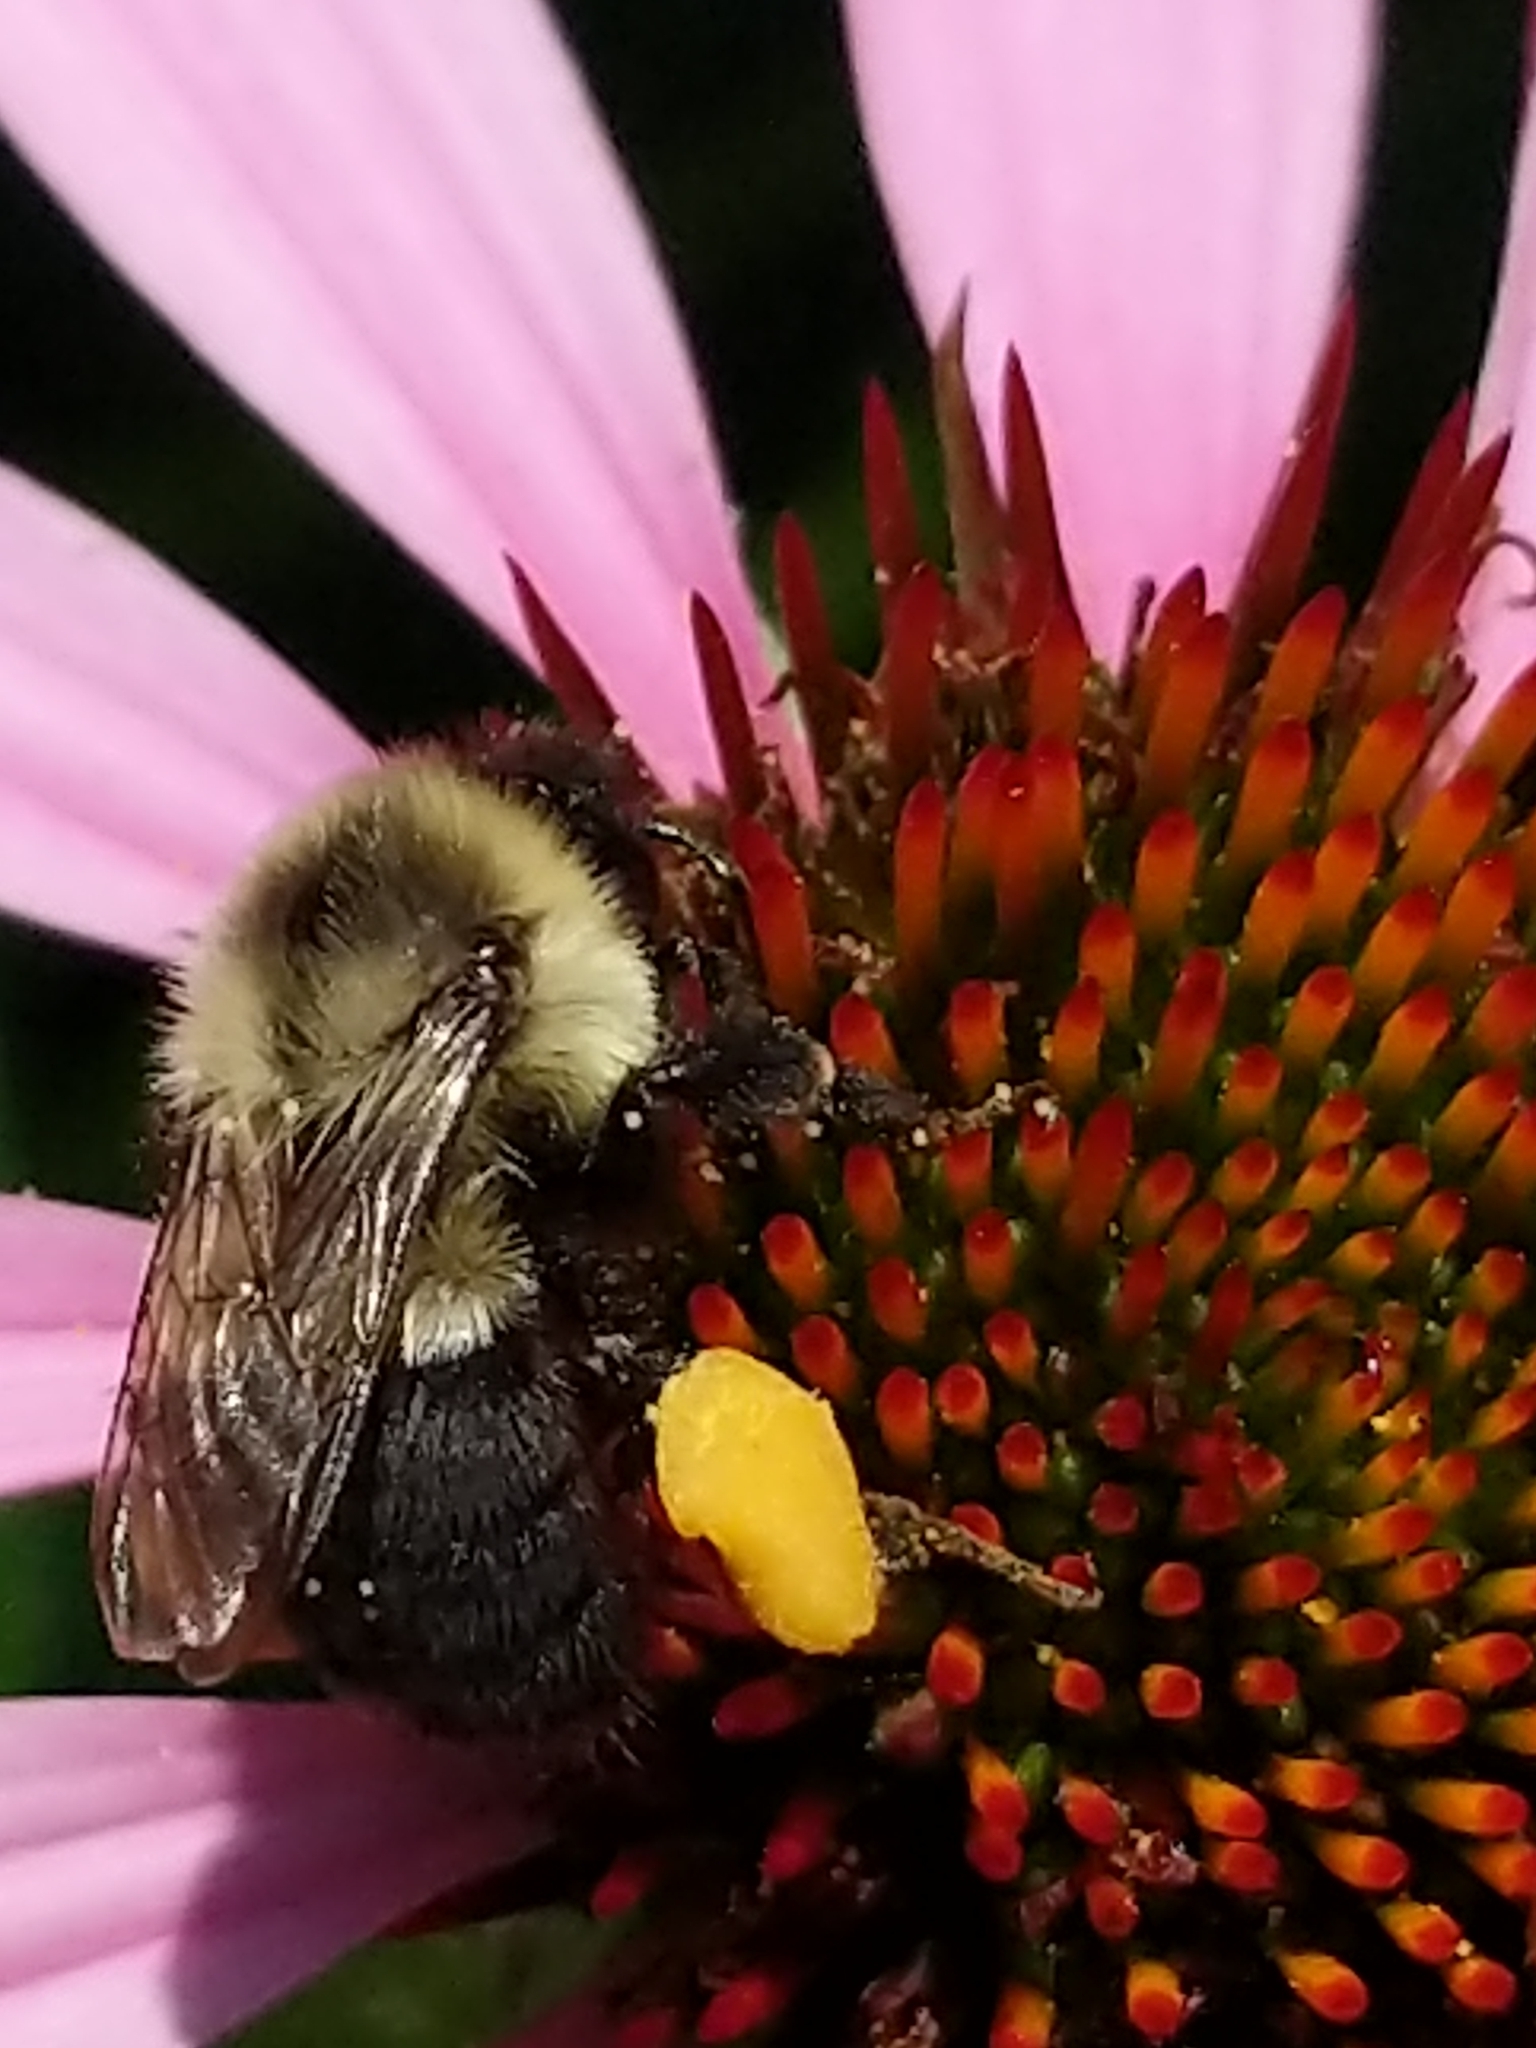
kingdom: Animalia
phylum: Arthropoda
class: Insecta
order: Hymenoptera
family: Apidae
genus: Bombus
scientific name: Bombus impatiens
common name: Common eastern bumble bee
